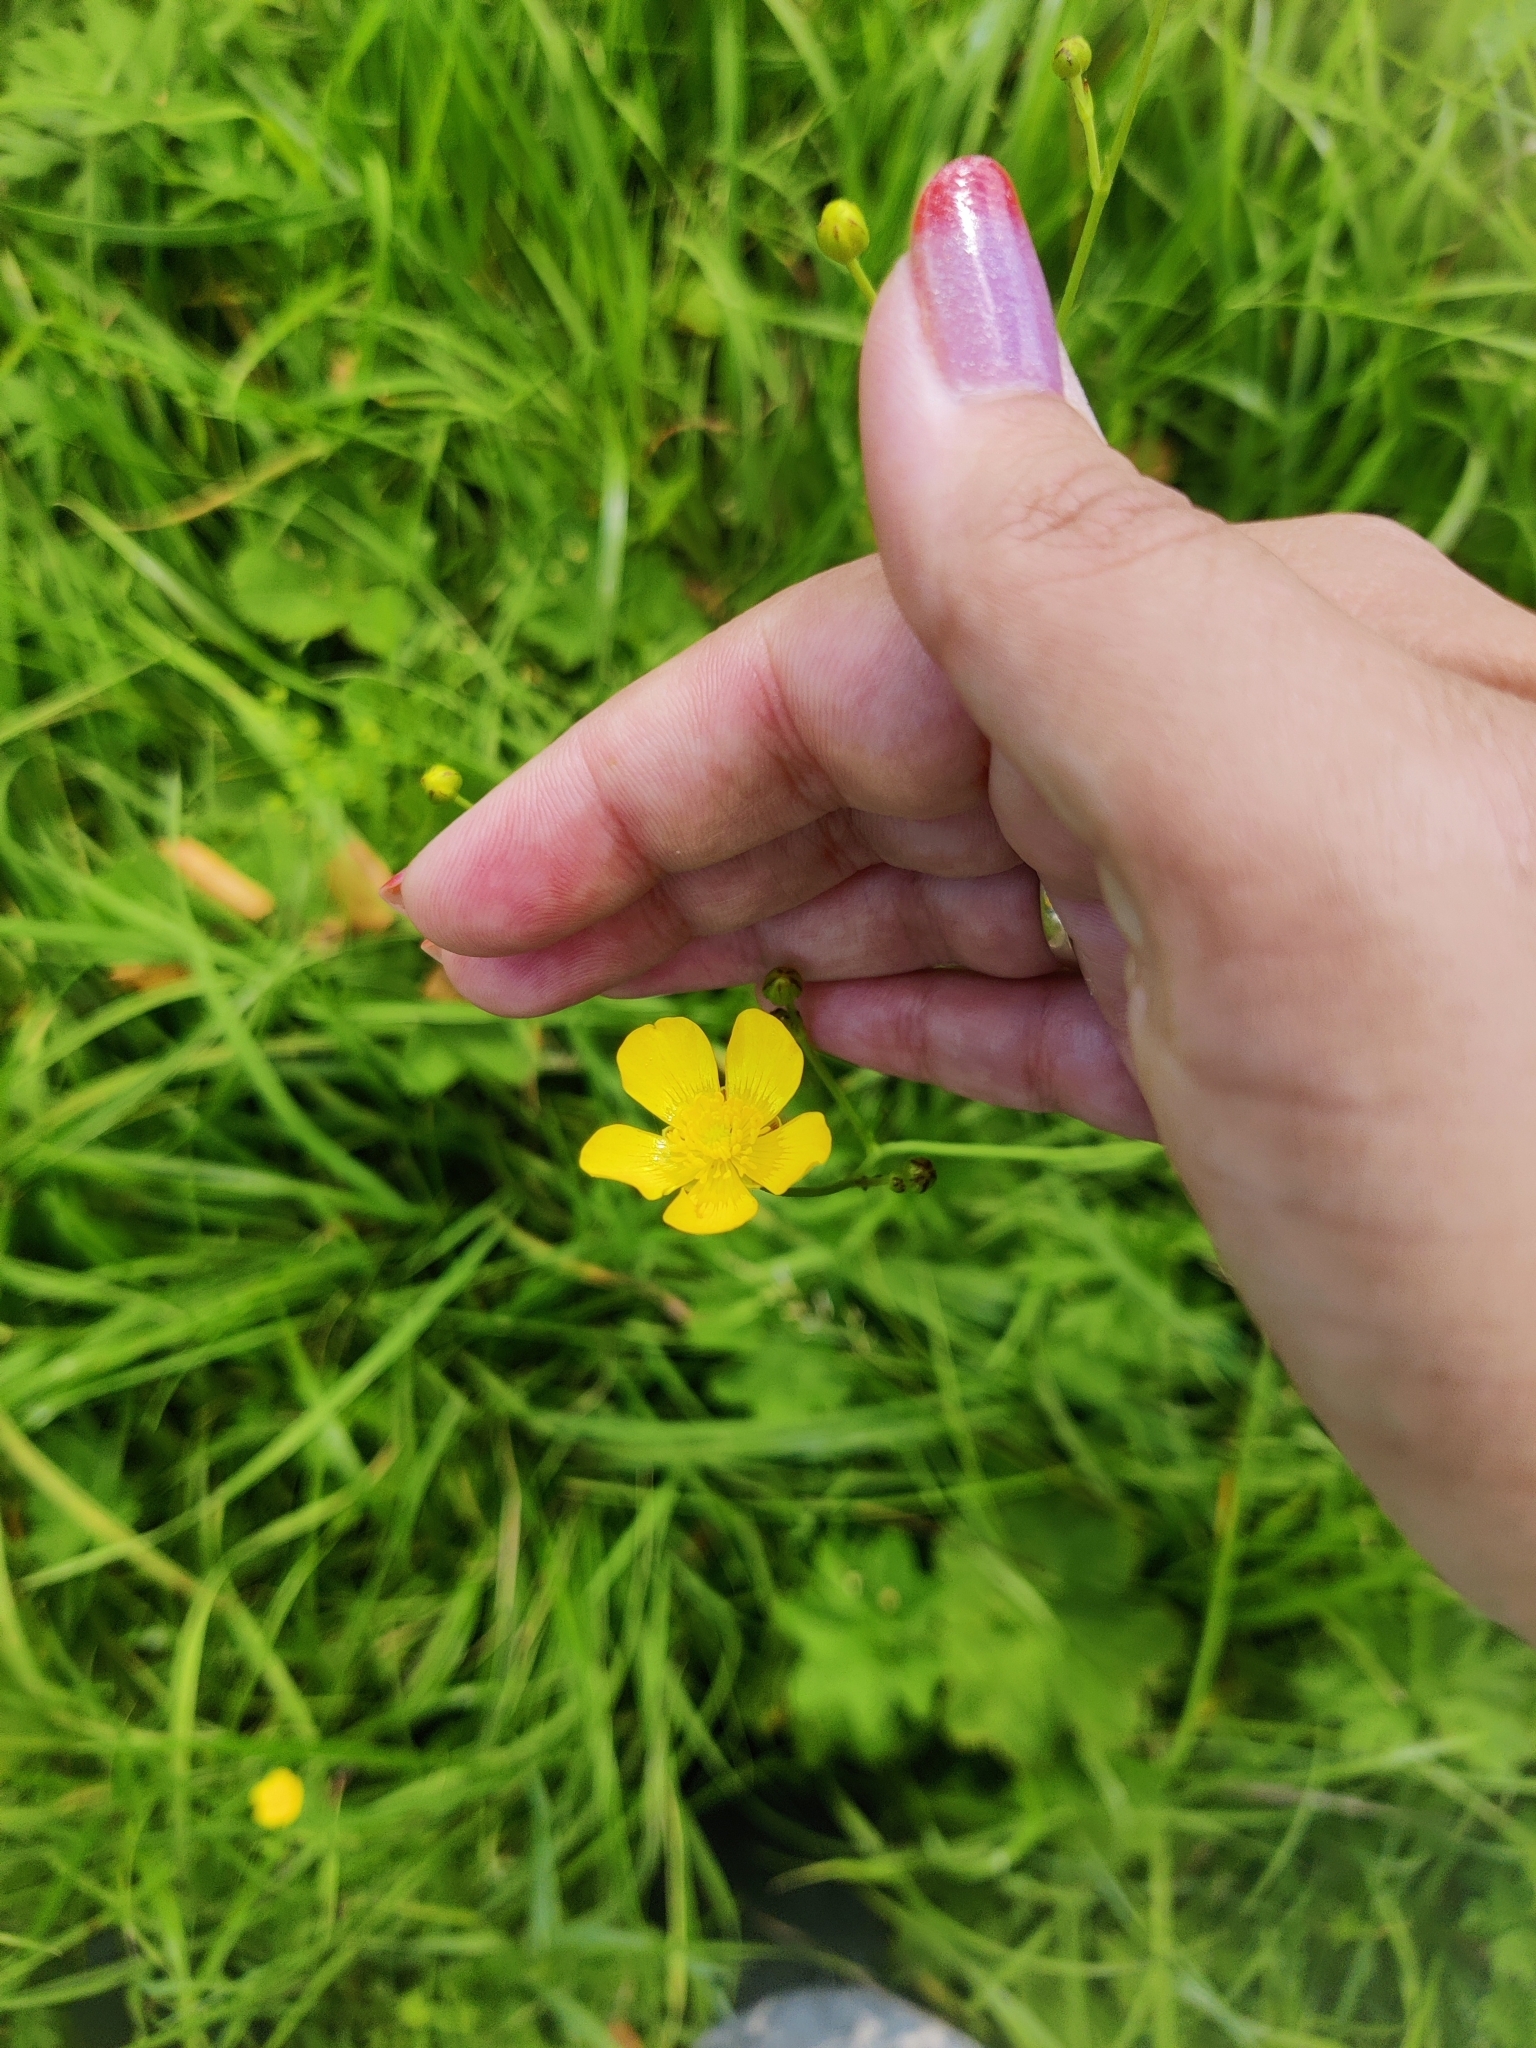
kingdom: Plantae
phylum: Tracheophyta
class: Magnoliopsida
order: Ranunculales
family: Ranunculaceae
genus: Ranunculus
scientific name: Ranunculus acris
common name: Meadow buttercup
